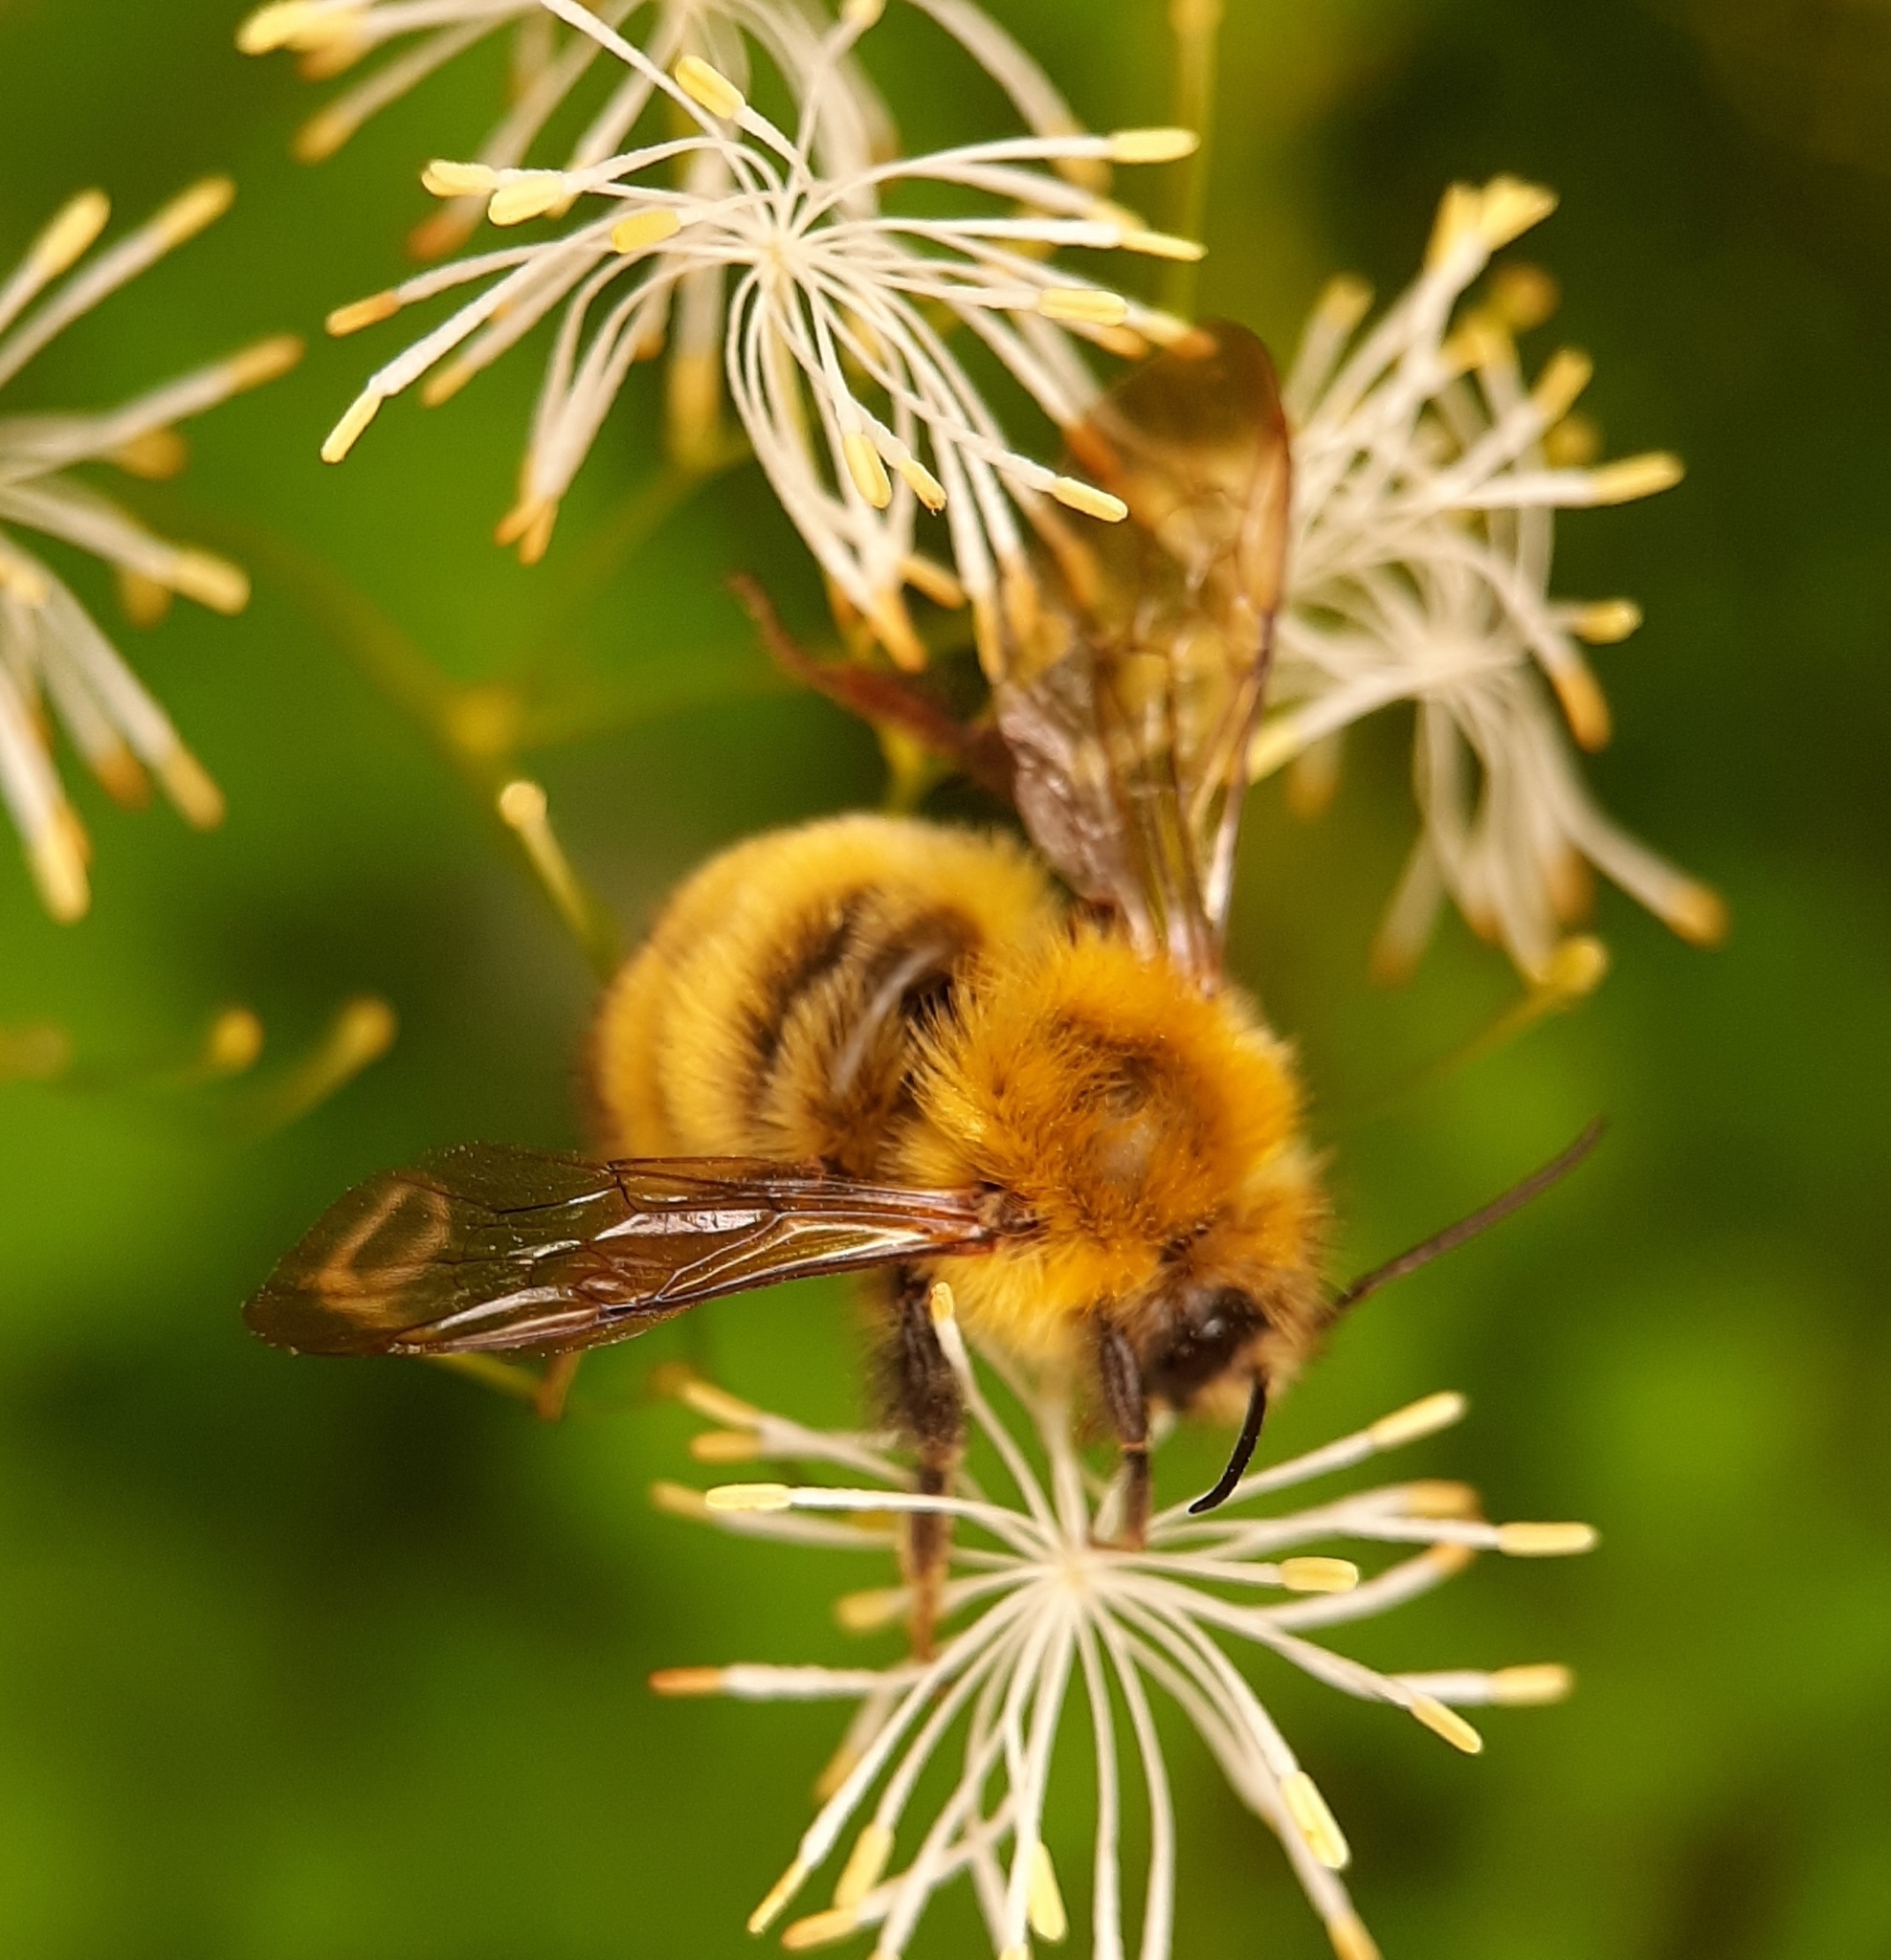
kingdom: Animalia
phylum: Arthropoda
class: Insecta
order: Hymenoptera
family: Apidae
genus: Bombus
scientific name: Bombus perplexus
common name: Confusing bumble bee
